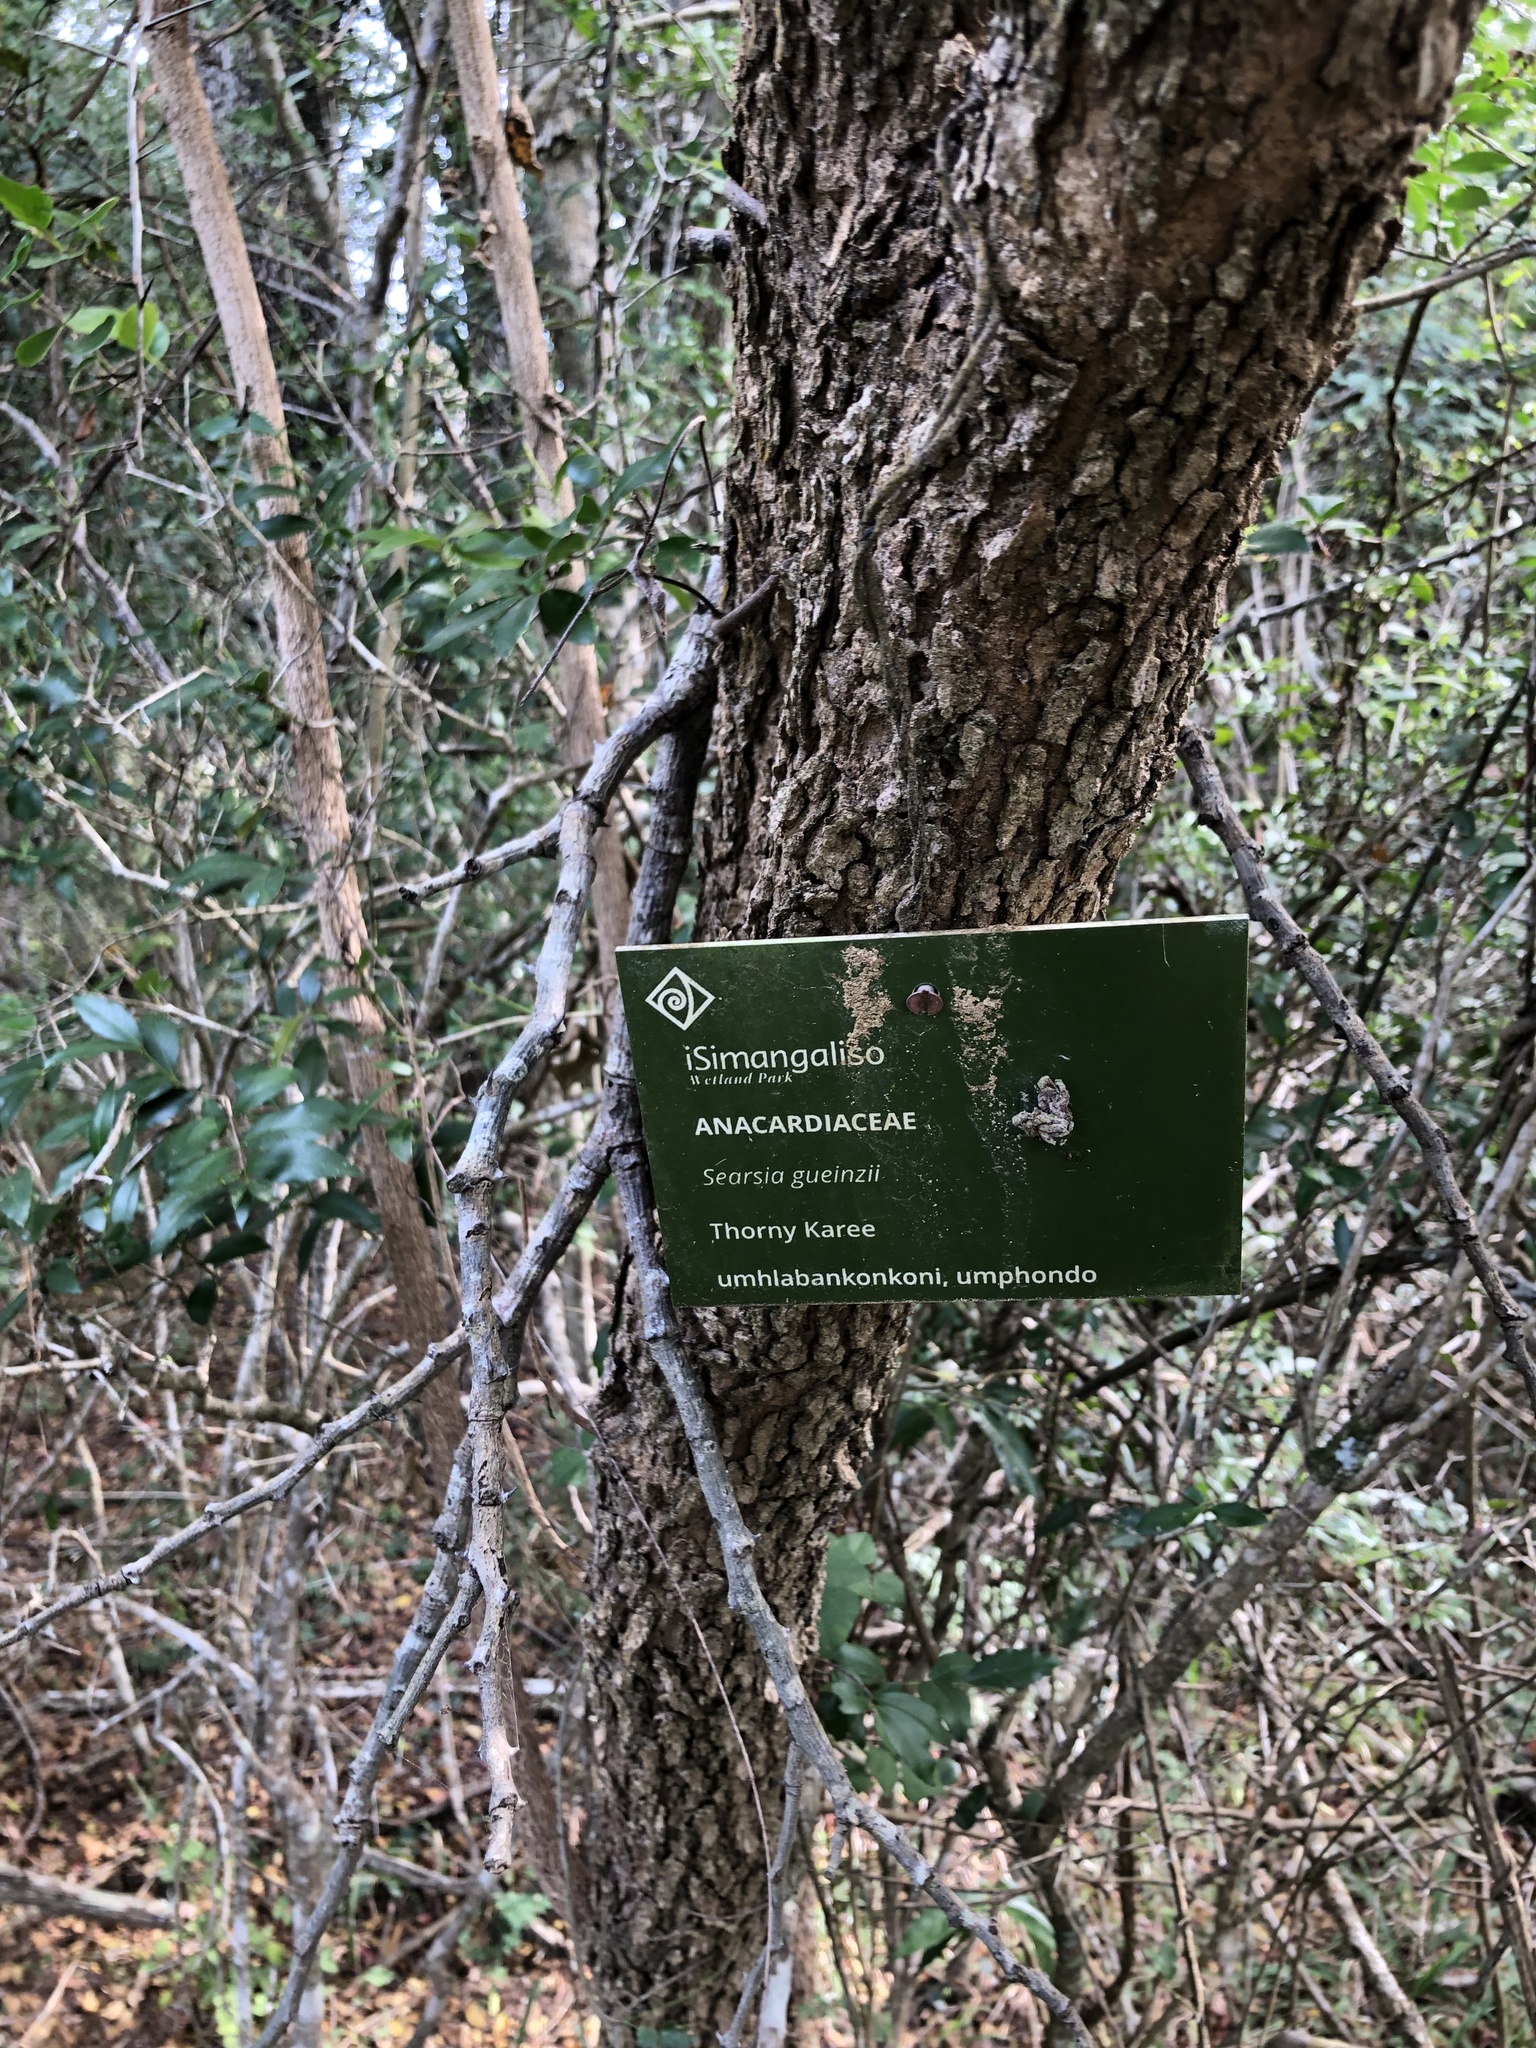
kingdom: Plantae
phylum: Tracheophyta
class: Magnoliopsida
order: Sapindales
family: Anacardiaceae
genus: Searsia
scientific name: Searsia gueinzii
